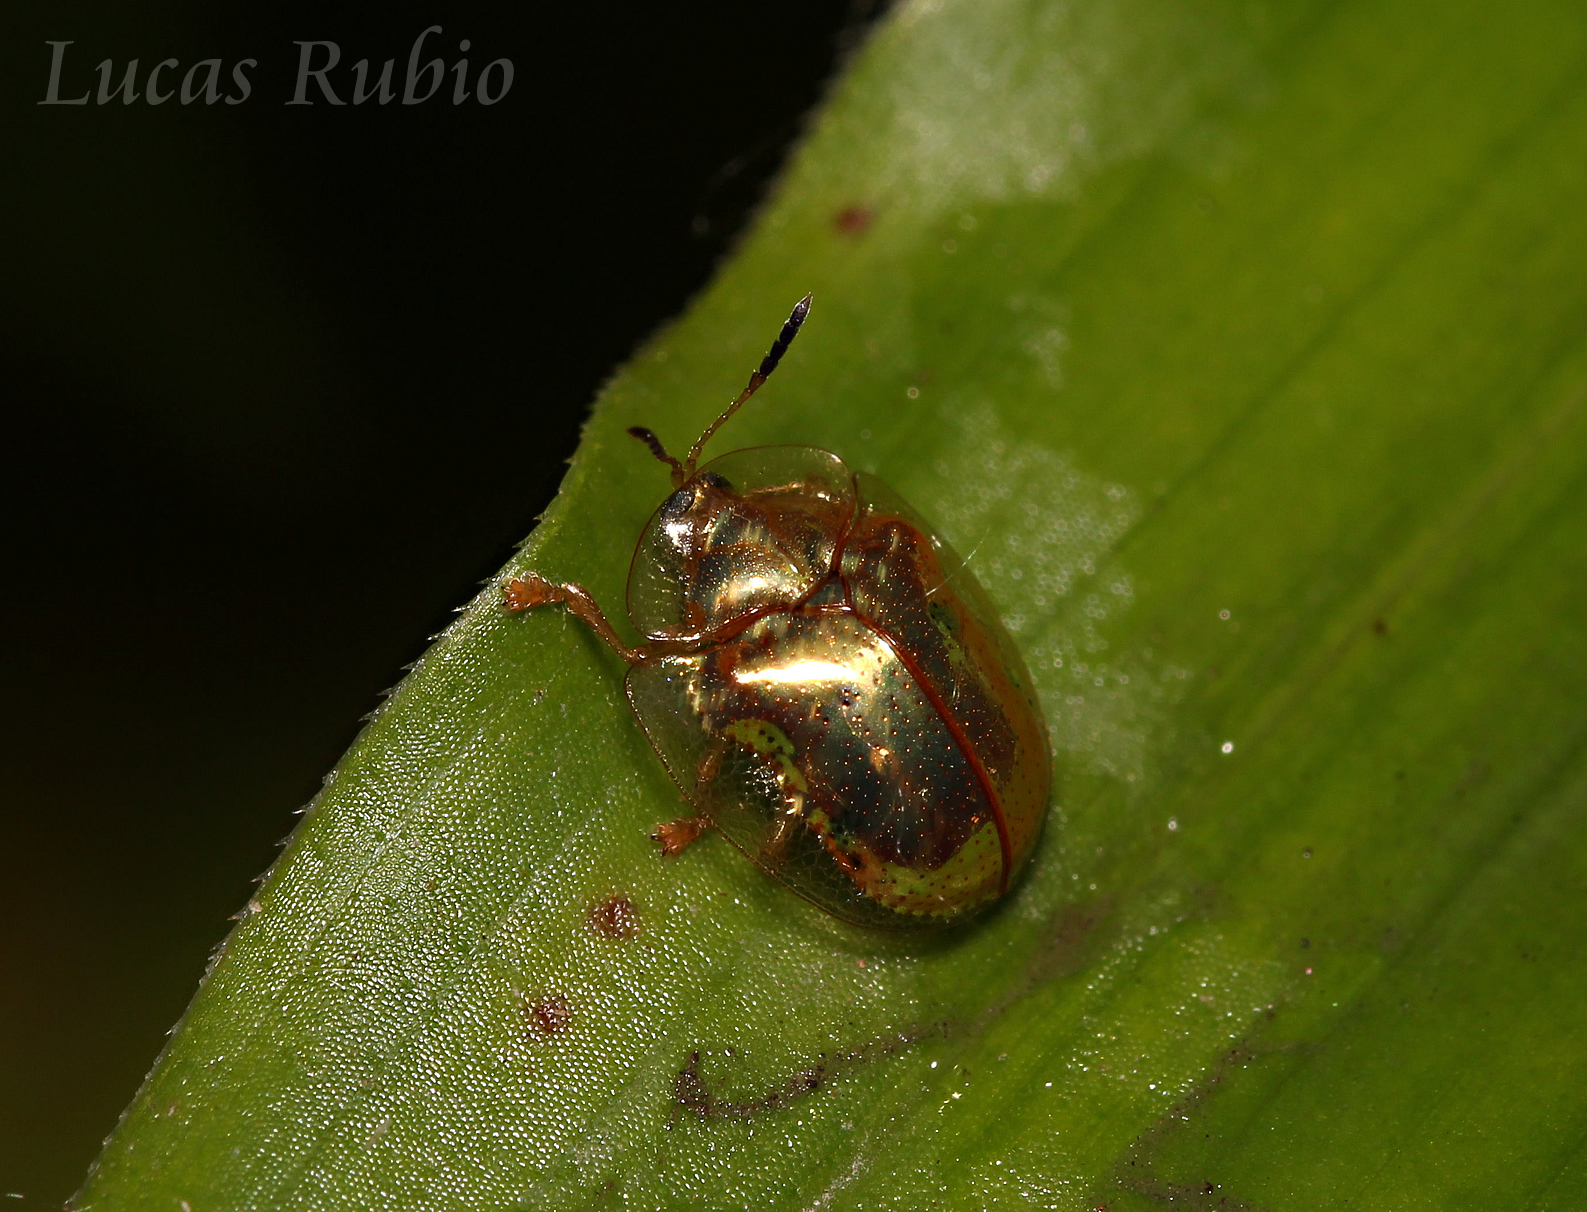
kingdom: Animalia
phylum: Arthropoda
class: Insecta
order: Coleoptera
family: Chrysomelidae
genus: Charidotella
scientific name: Charidotella sexpunctata
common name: Golden tortoise beetle
